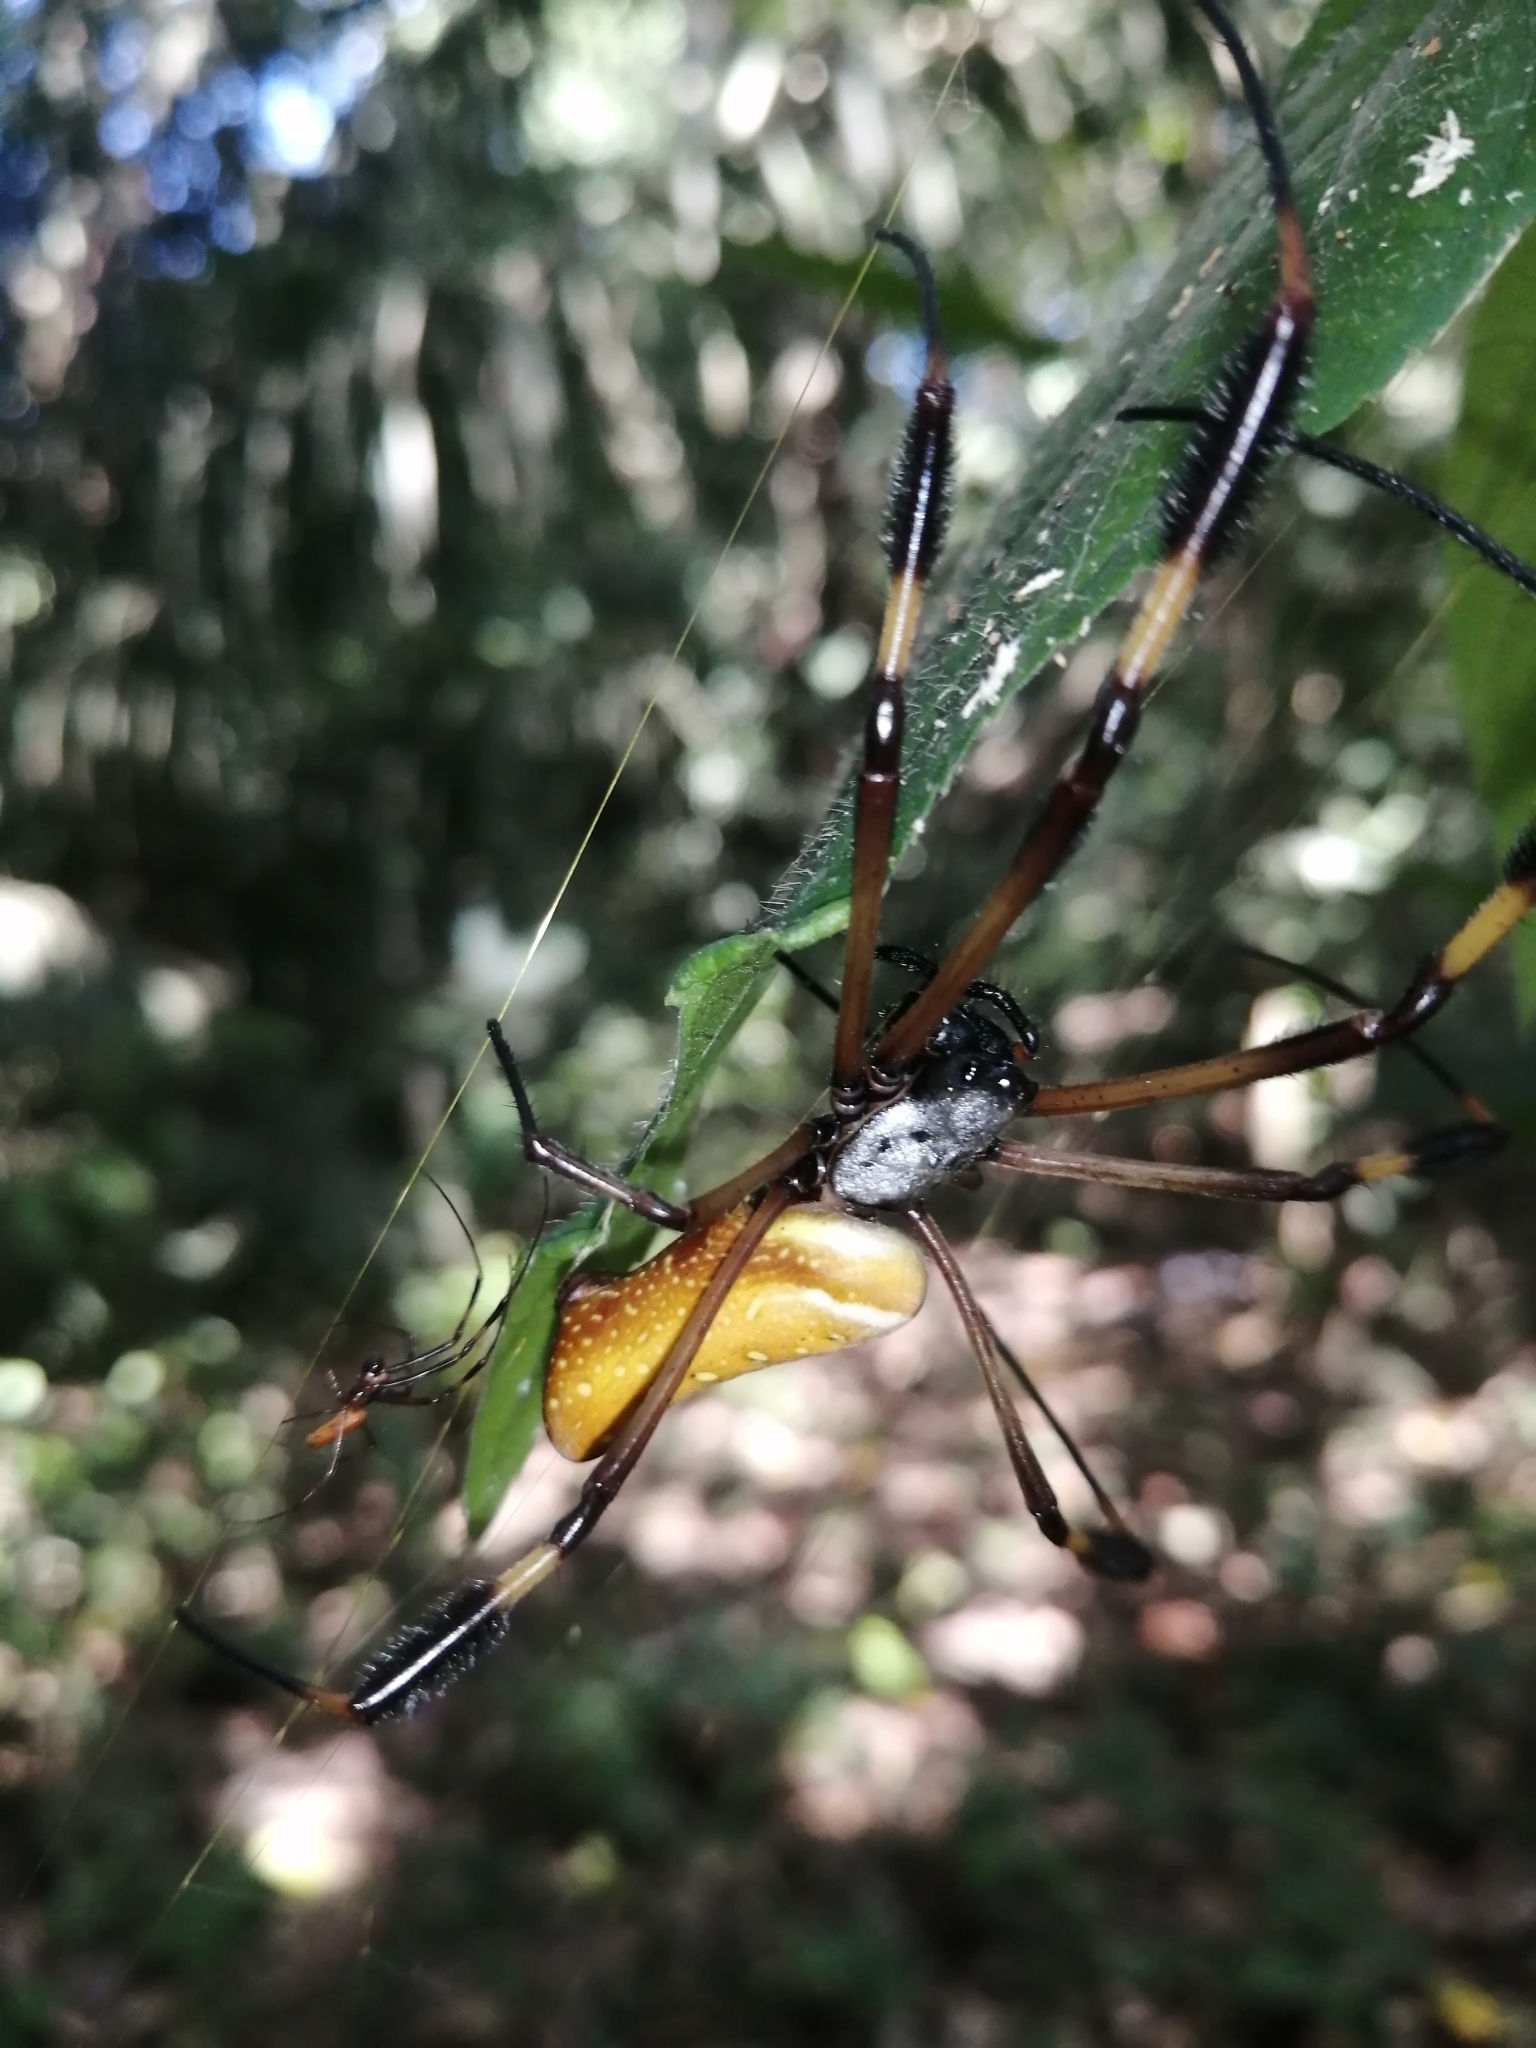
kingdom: Animalia
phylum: Arthropoda
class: Arachnida
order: Araneae
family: Araneidae
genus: Trichonephila
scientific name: Trichonephila clavipes
